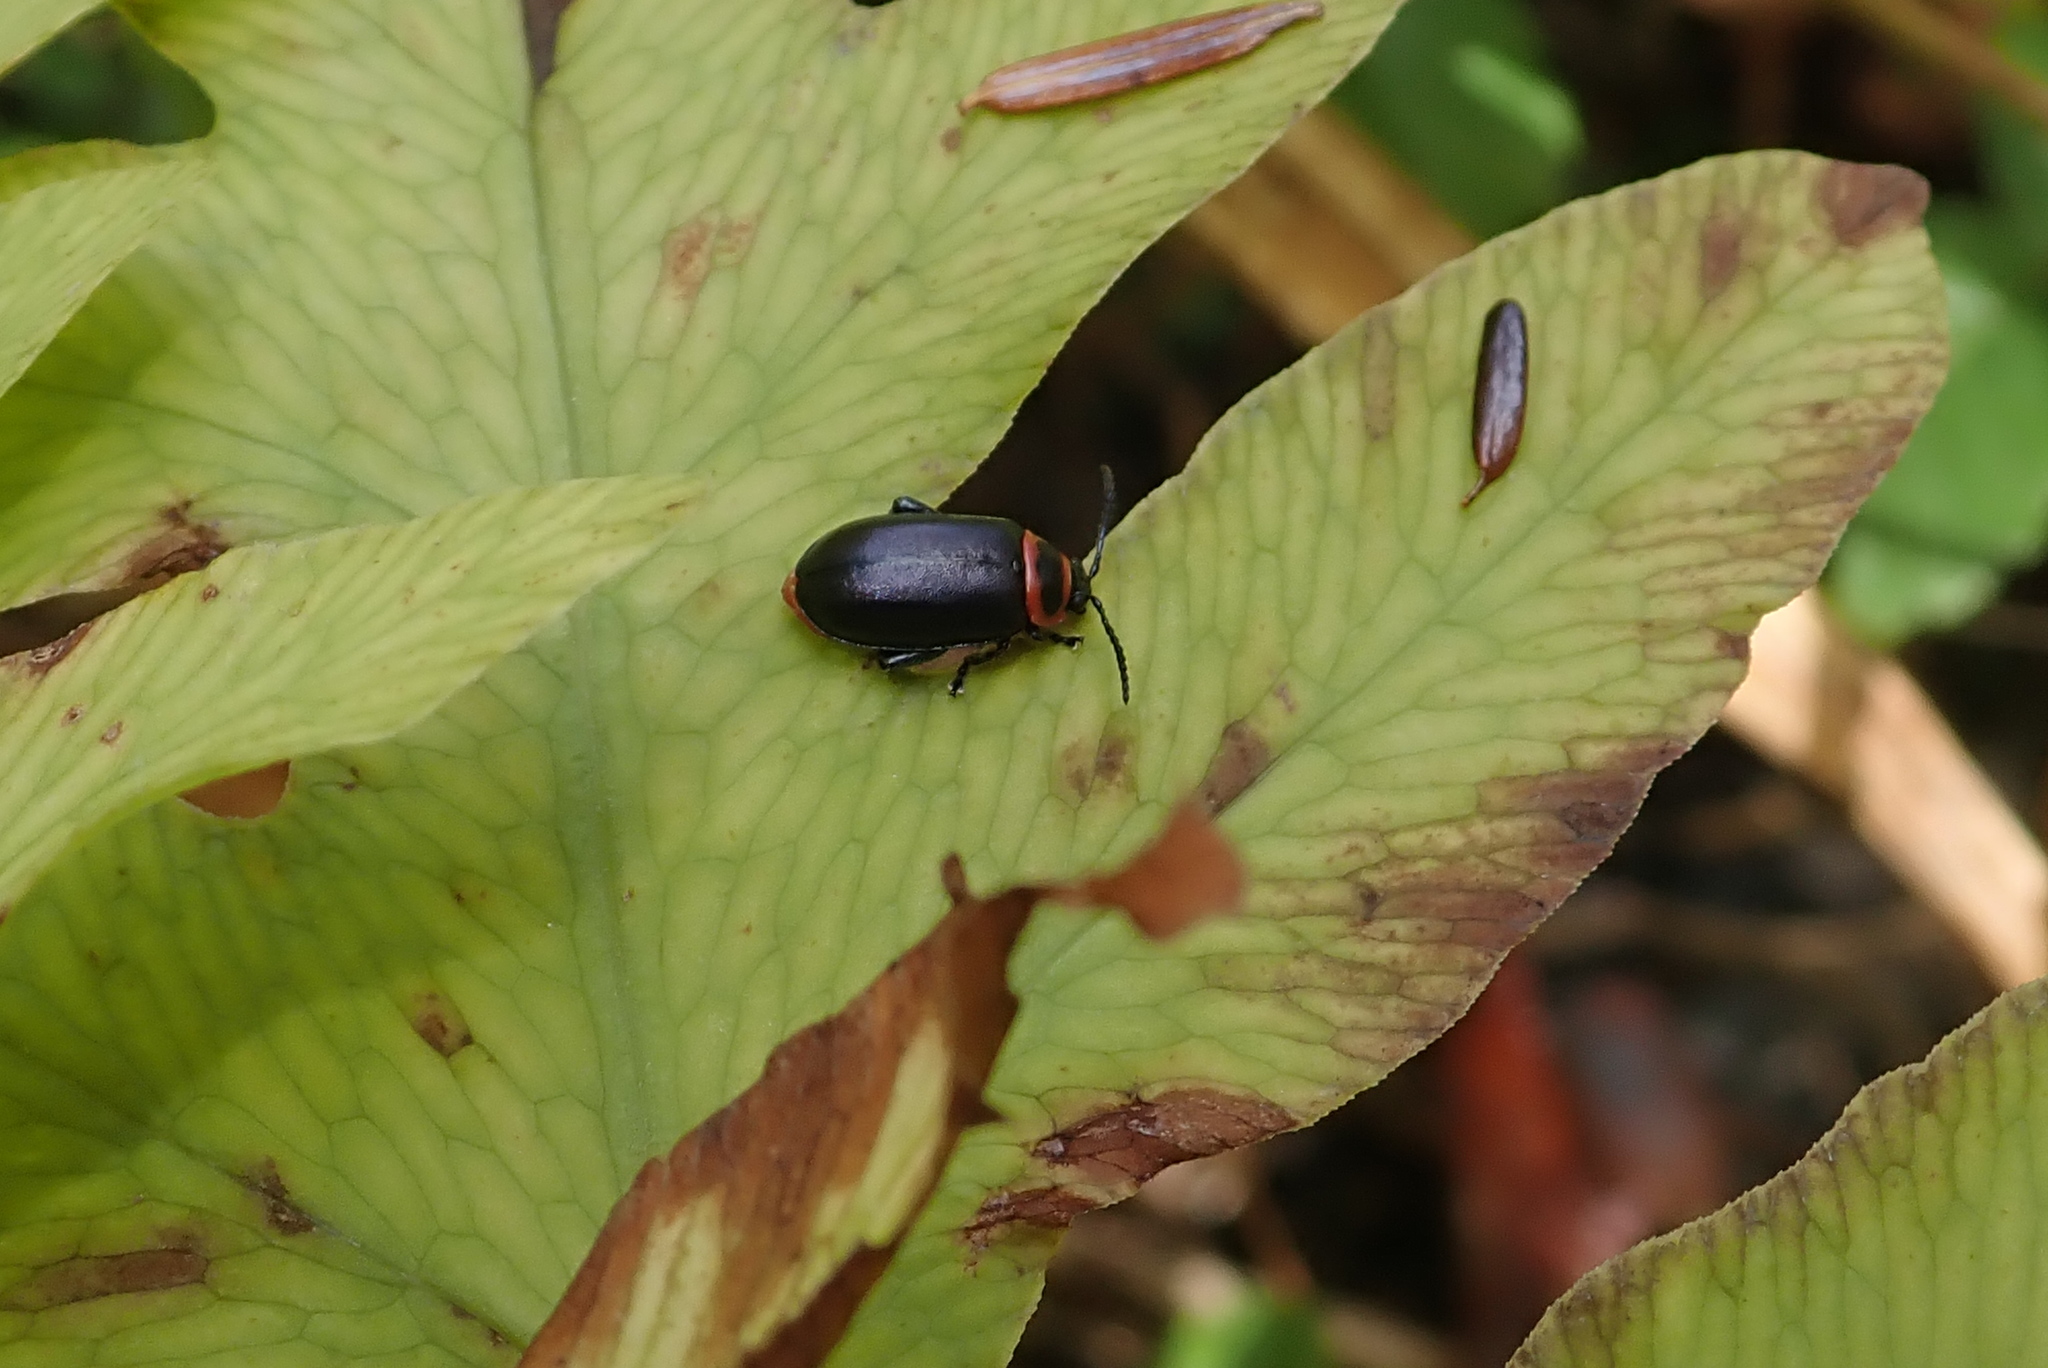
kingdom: Animalia
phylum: Arthropoda
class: Insecta
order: Coleoptera
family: Chrysomelidae
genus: Kuschelina
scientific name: Kuschelina vians
